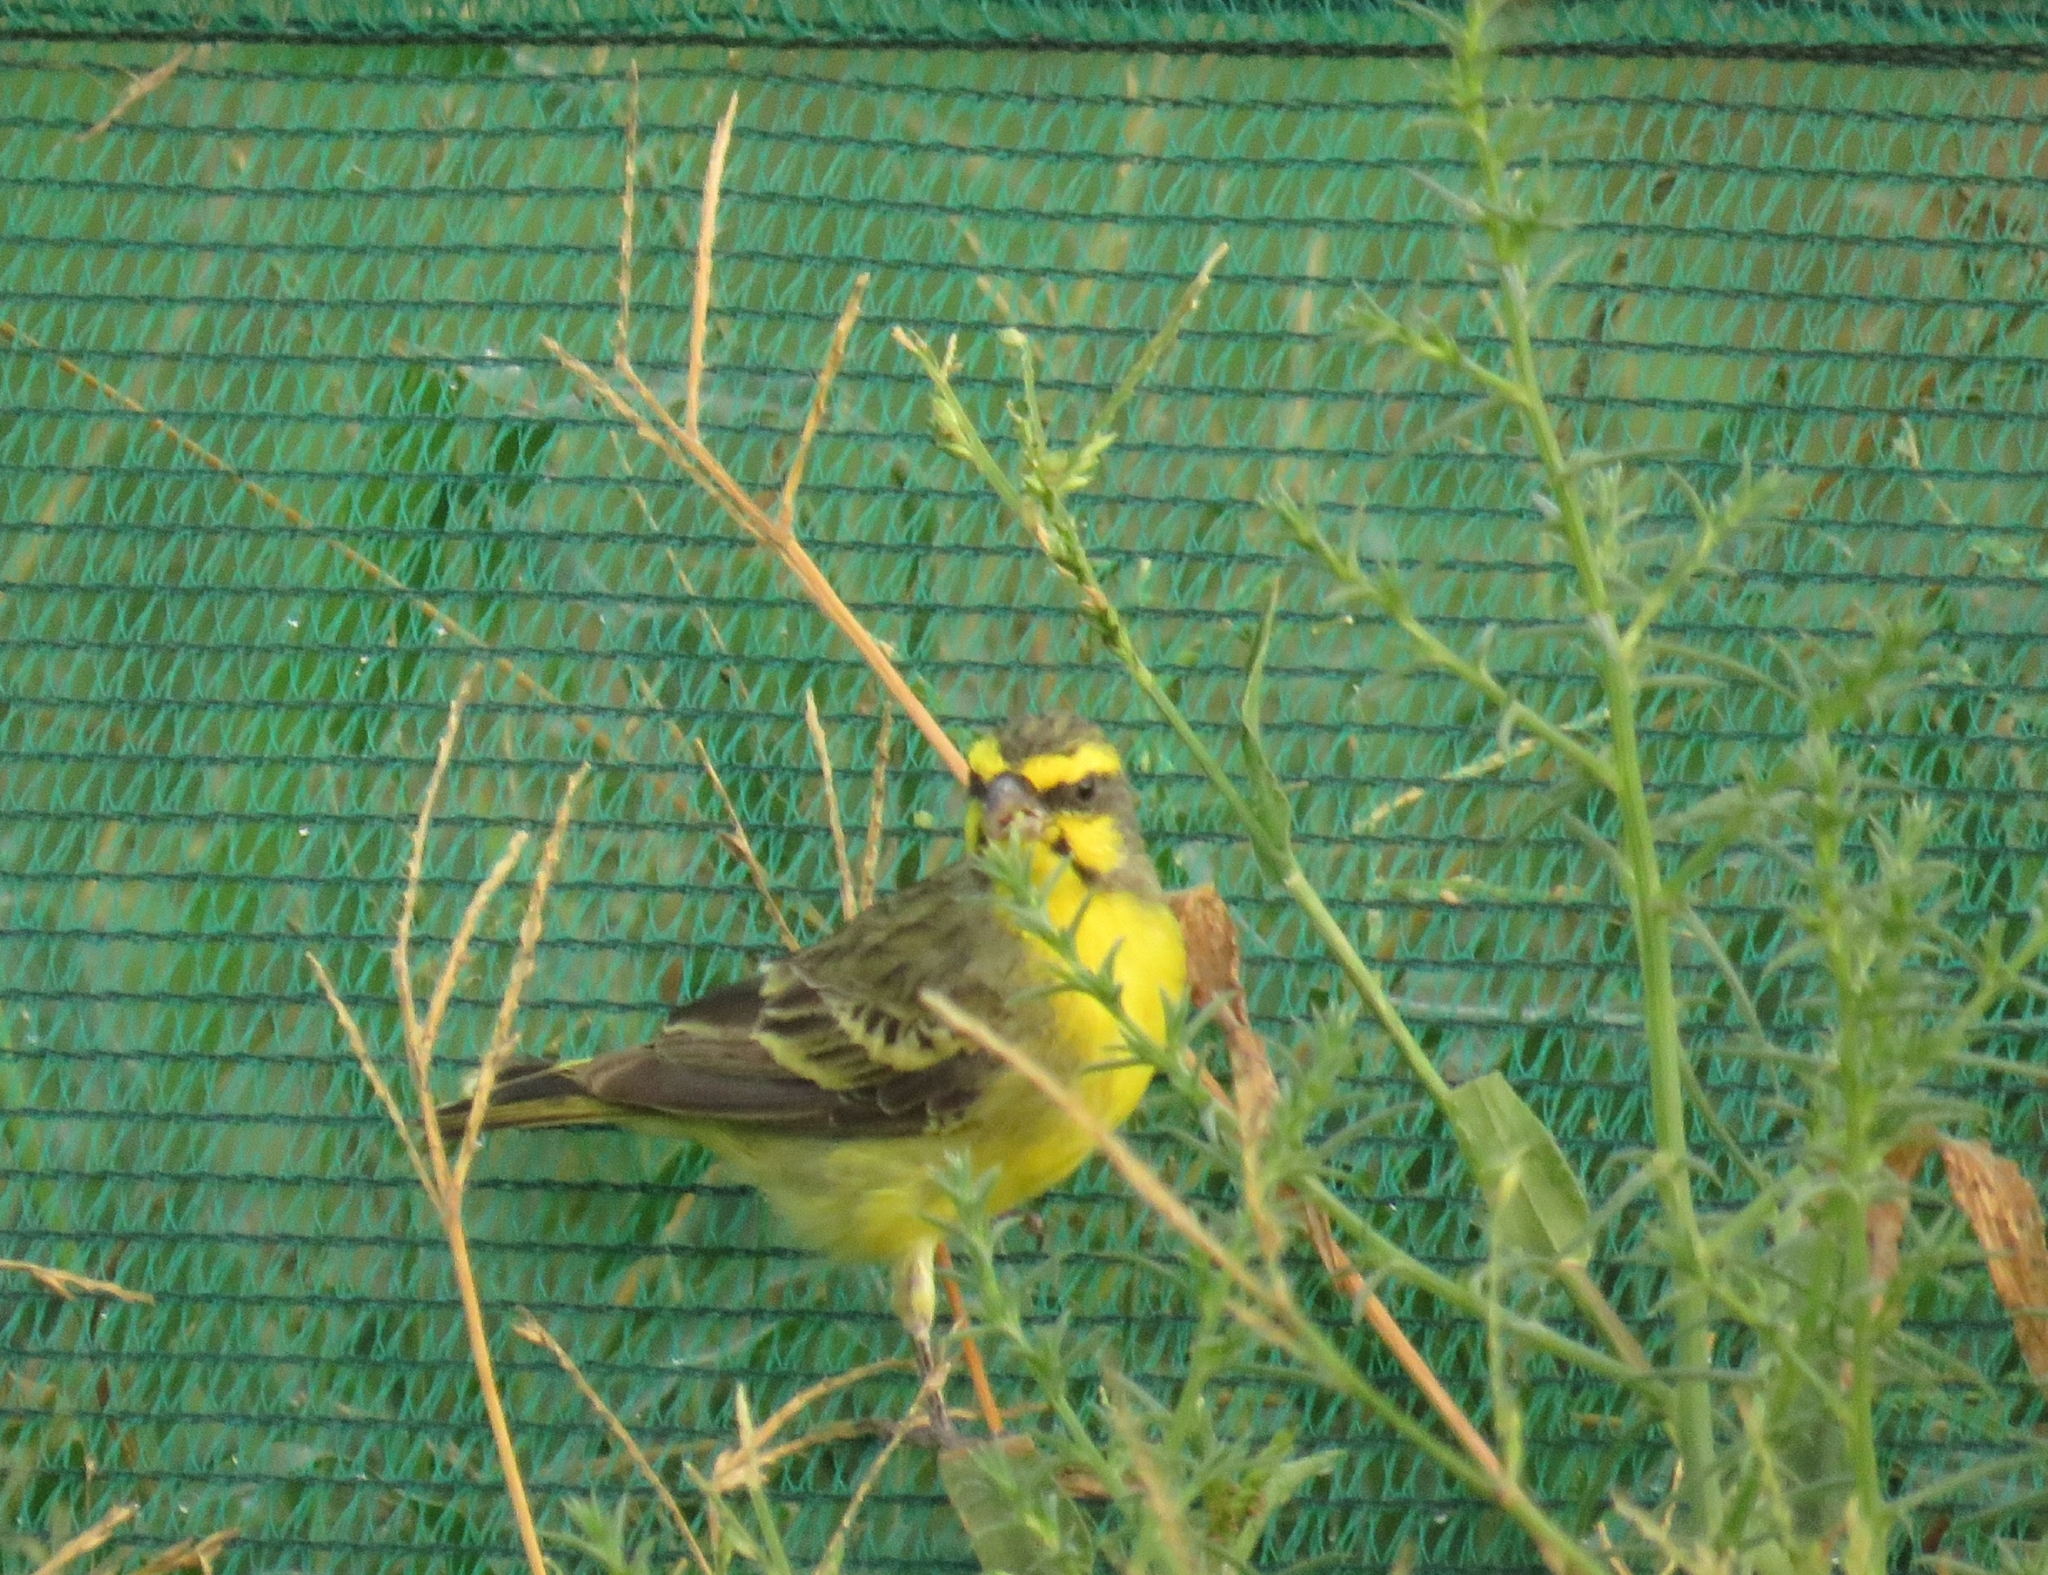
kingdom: Animalia
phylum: Chordata
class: Aves
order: Passeriformes
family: Fringillidae
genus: Crithagra
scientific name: Crithagra mozambica
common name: Yellow-fronted canary
